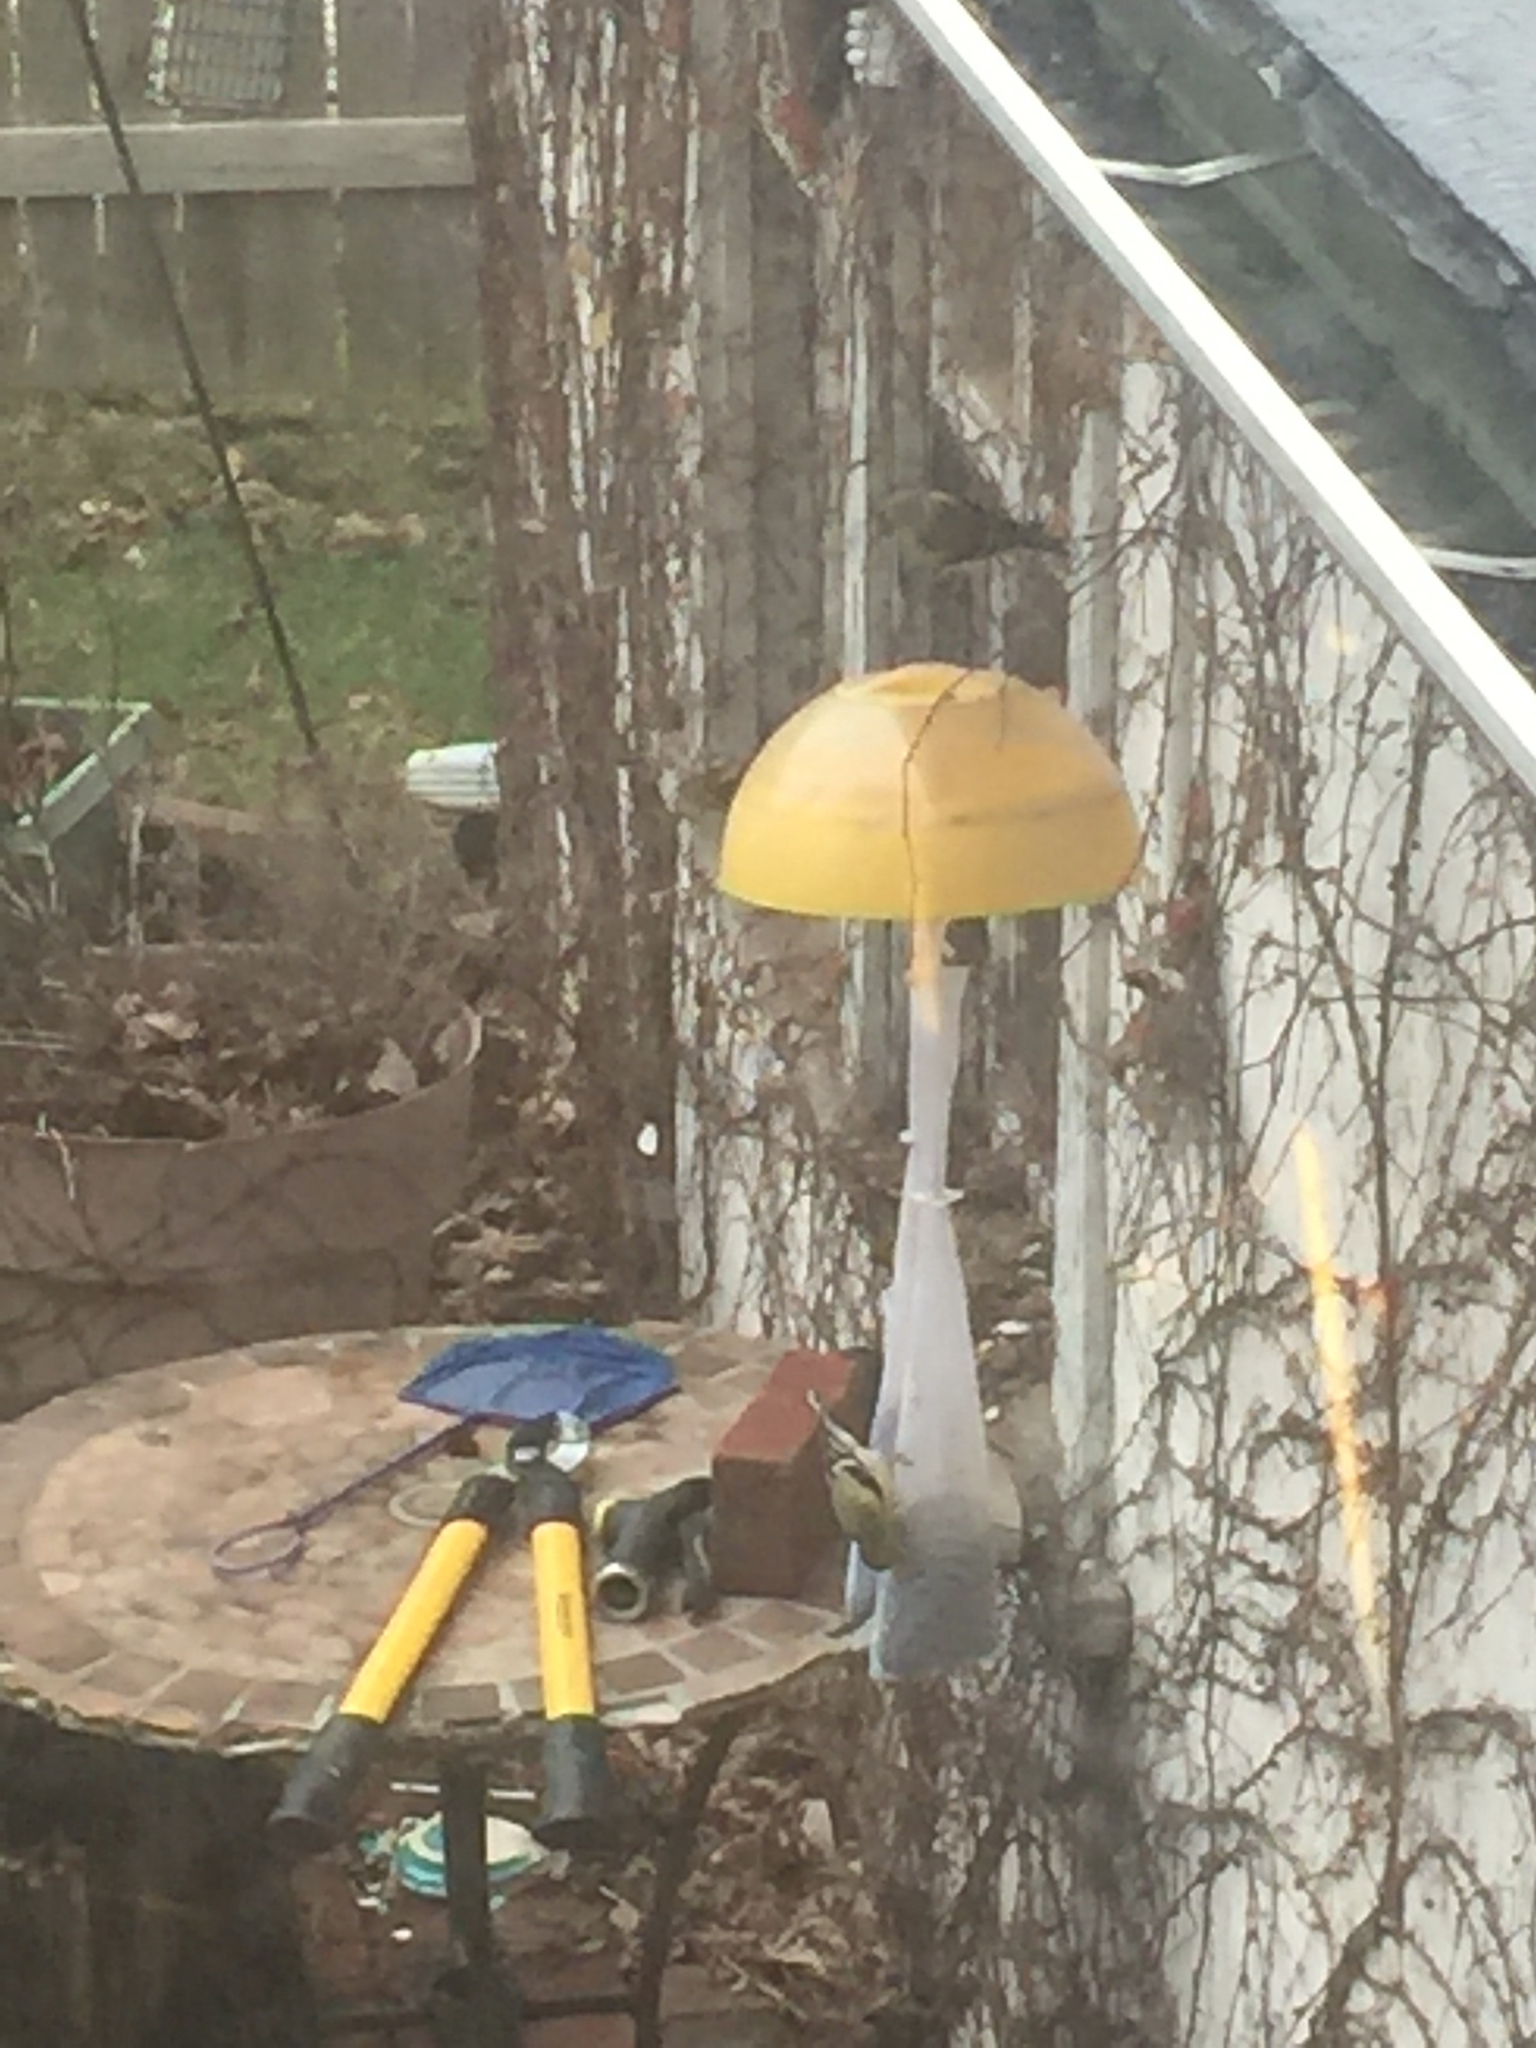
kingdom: Animalia
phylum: Chordata
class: Aves
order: Passeriformes
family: Fringillidae
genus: Spinus
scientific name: Spinus tristis
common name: American goldfinch
